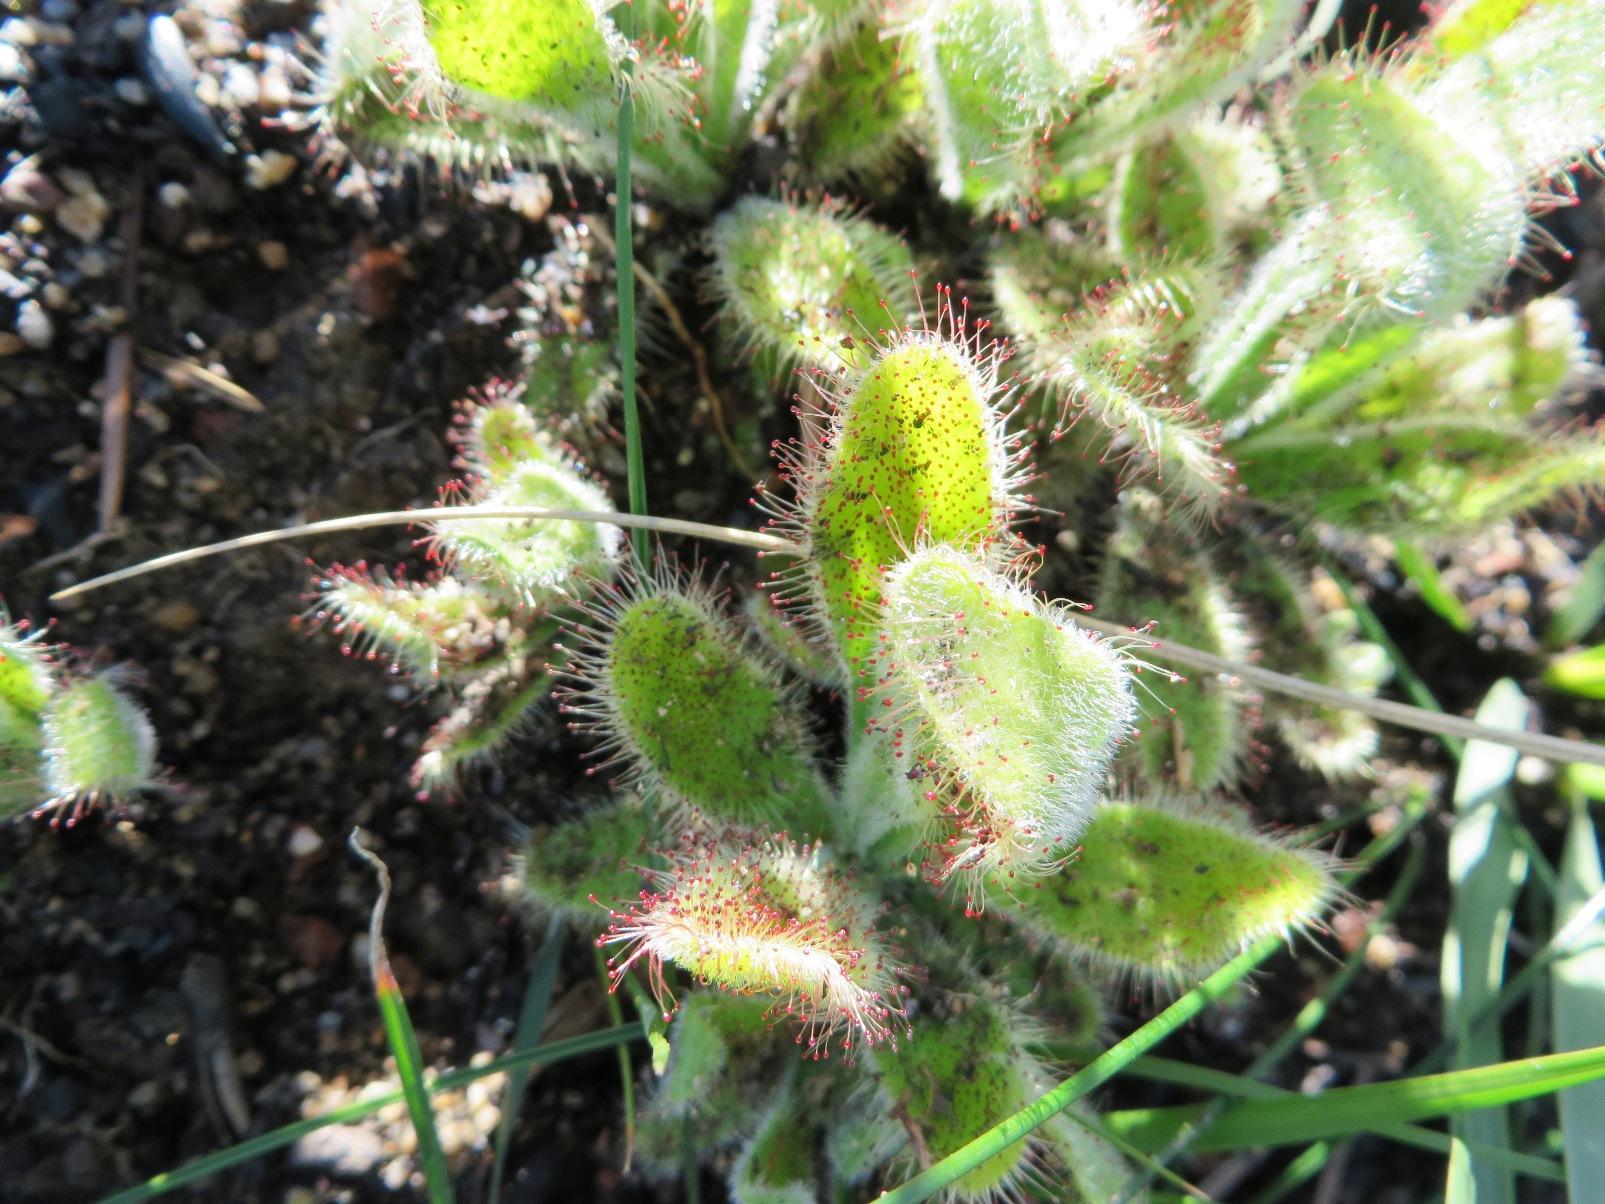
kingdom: Plantae
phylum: Tracheophyta
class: Magnoliopsida
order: Caryophyllales
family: Droseraceae
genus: Drosera
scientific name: Drosera hilaris
